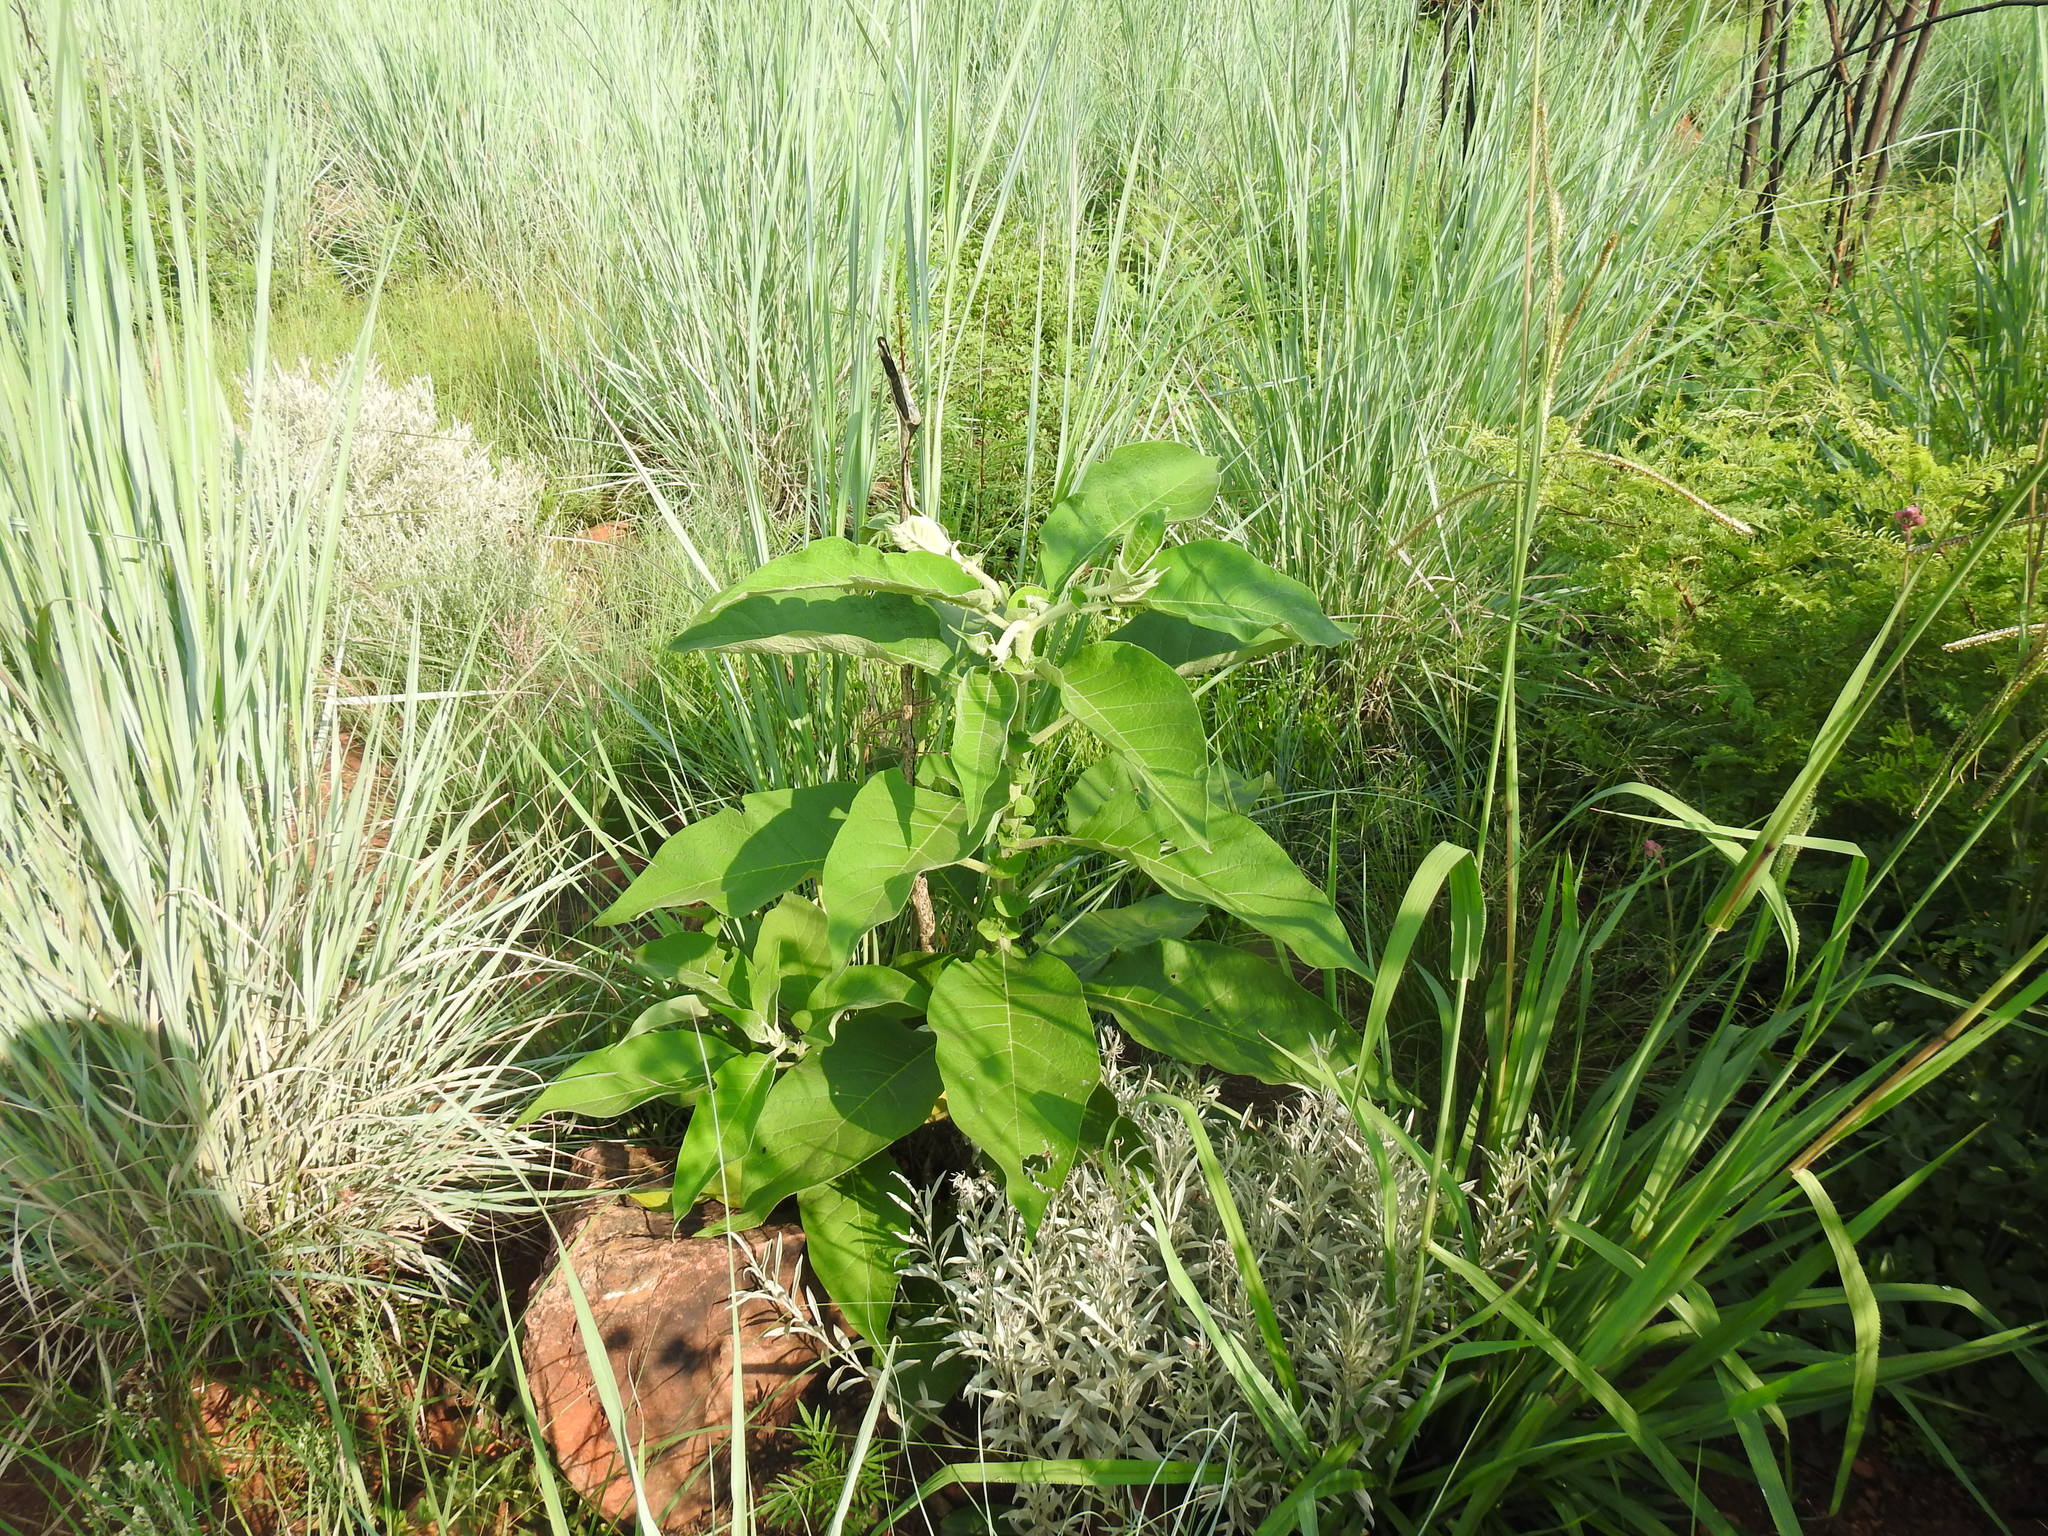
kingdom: Plantae
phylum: Tracheophyta
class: Magnoliopsida
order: Solanales
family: Solanaceae
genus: Solanum
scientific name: Solanum mauritianum
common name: Earleaf nightshade
